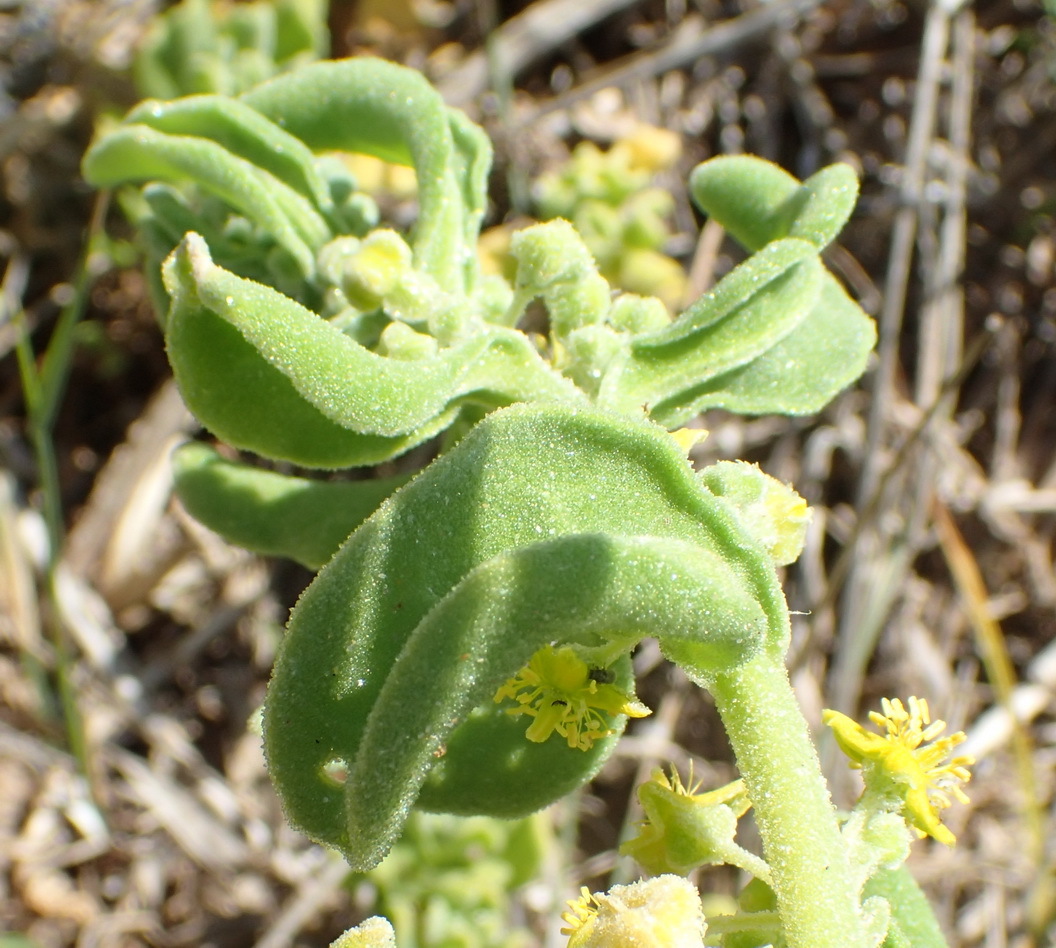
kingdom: Plantae
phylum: Tracheophyta
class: Magnoliopsida
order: Caryophyllales
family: Aizoaceae
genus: Tetragonia
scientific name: Tetragonia decumbens
